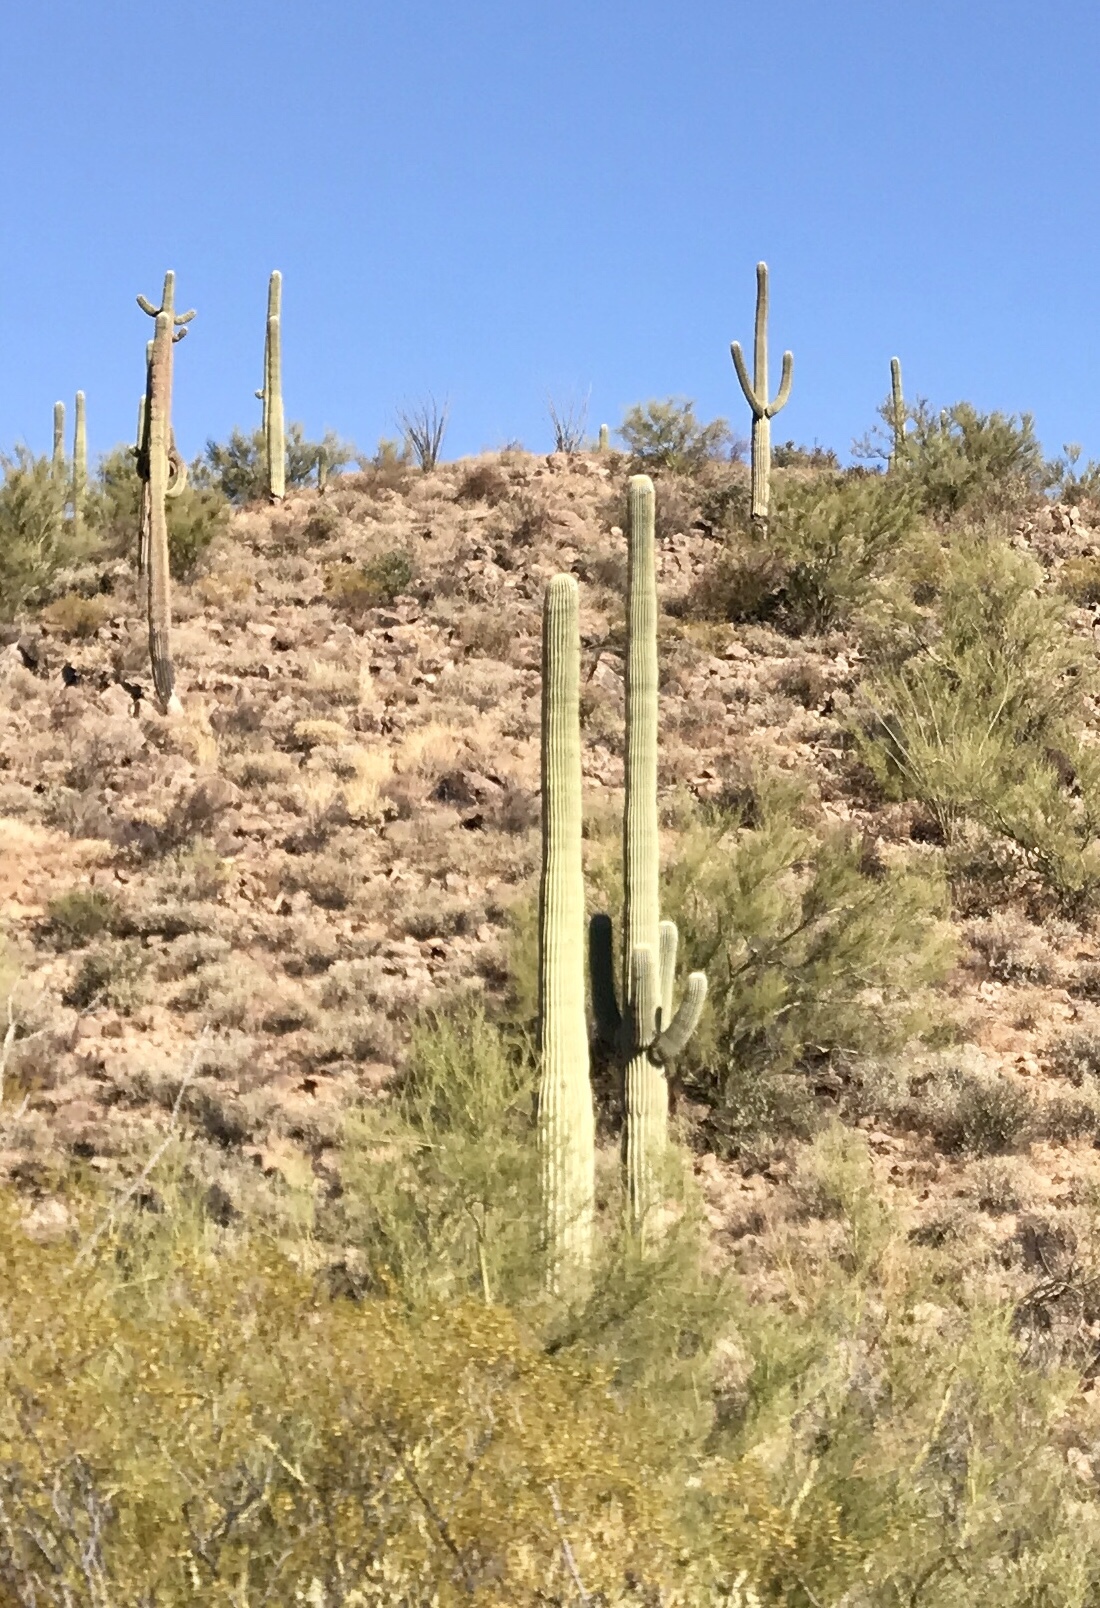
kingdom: Plantae
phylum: Tracheophyta
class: Magnoliopsida
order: Caryophyllales
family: Cactaceae
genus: Carnegiea
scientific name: Carnegiea gigantea
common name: Saguaro
